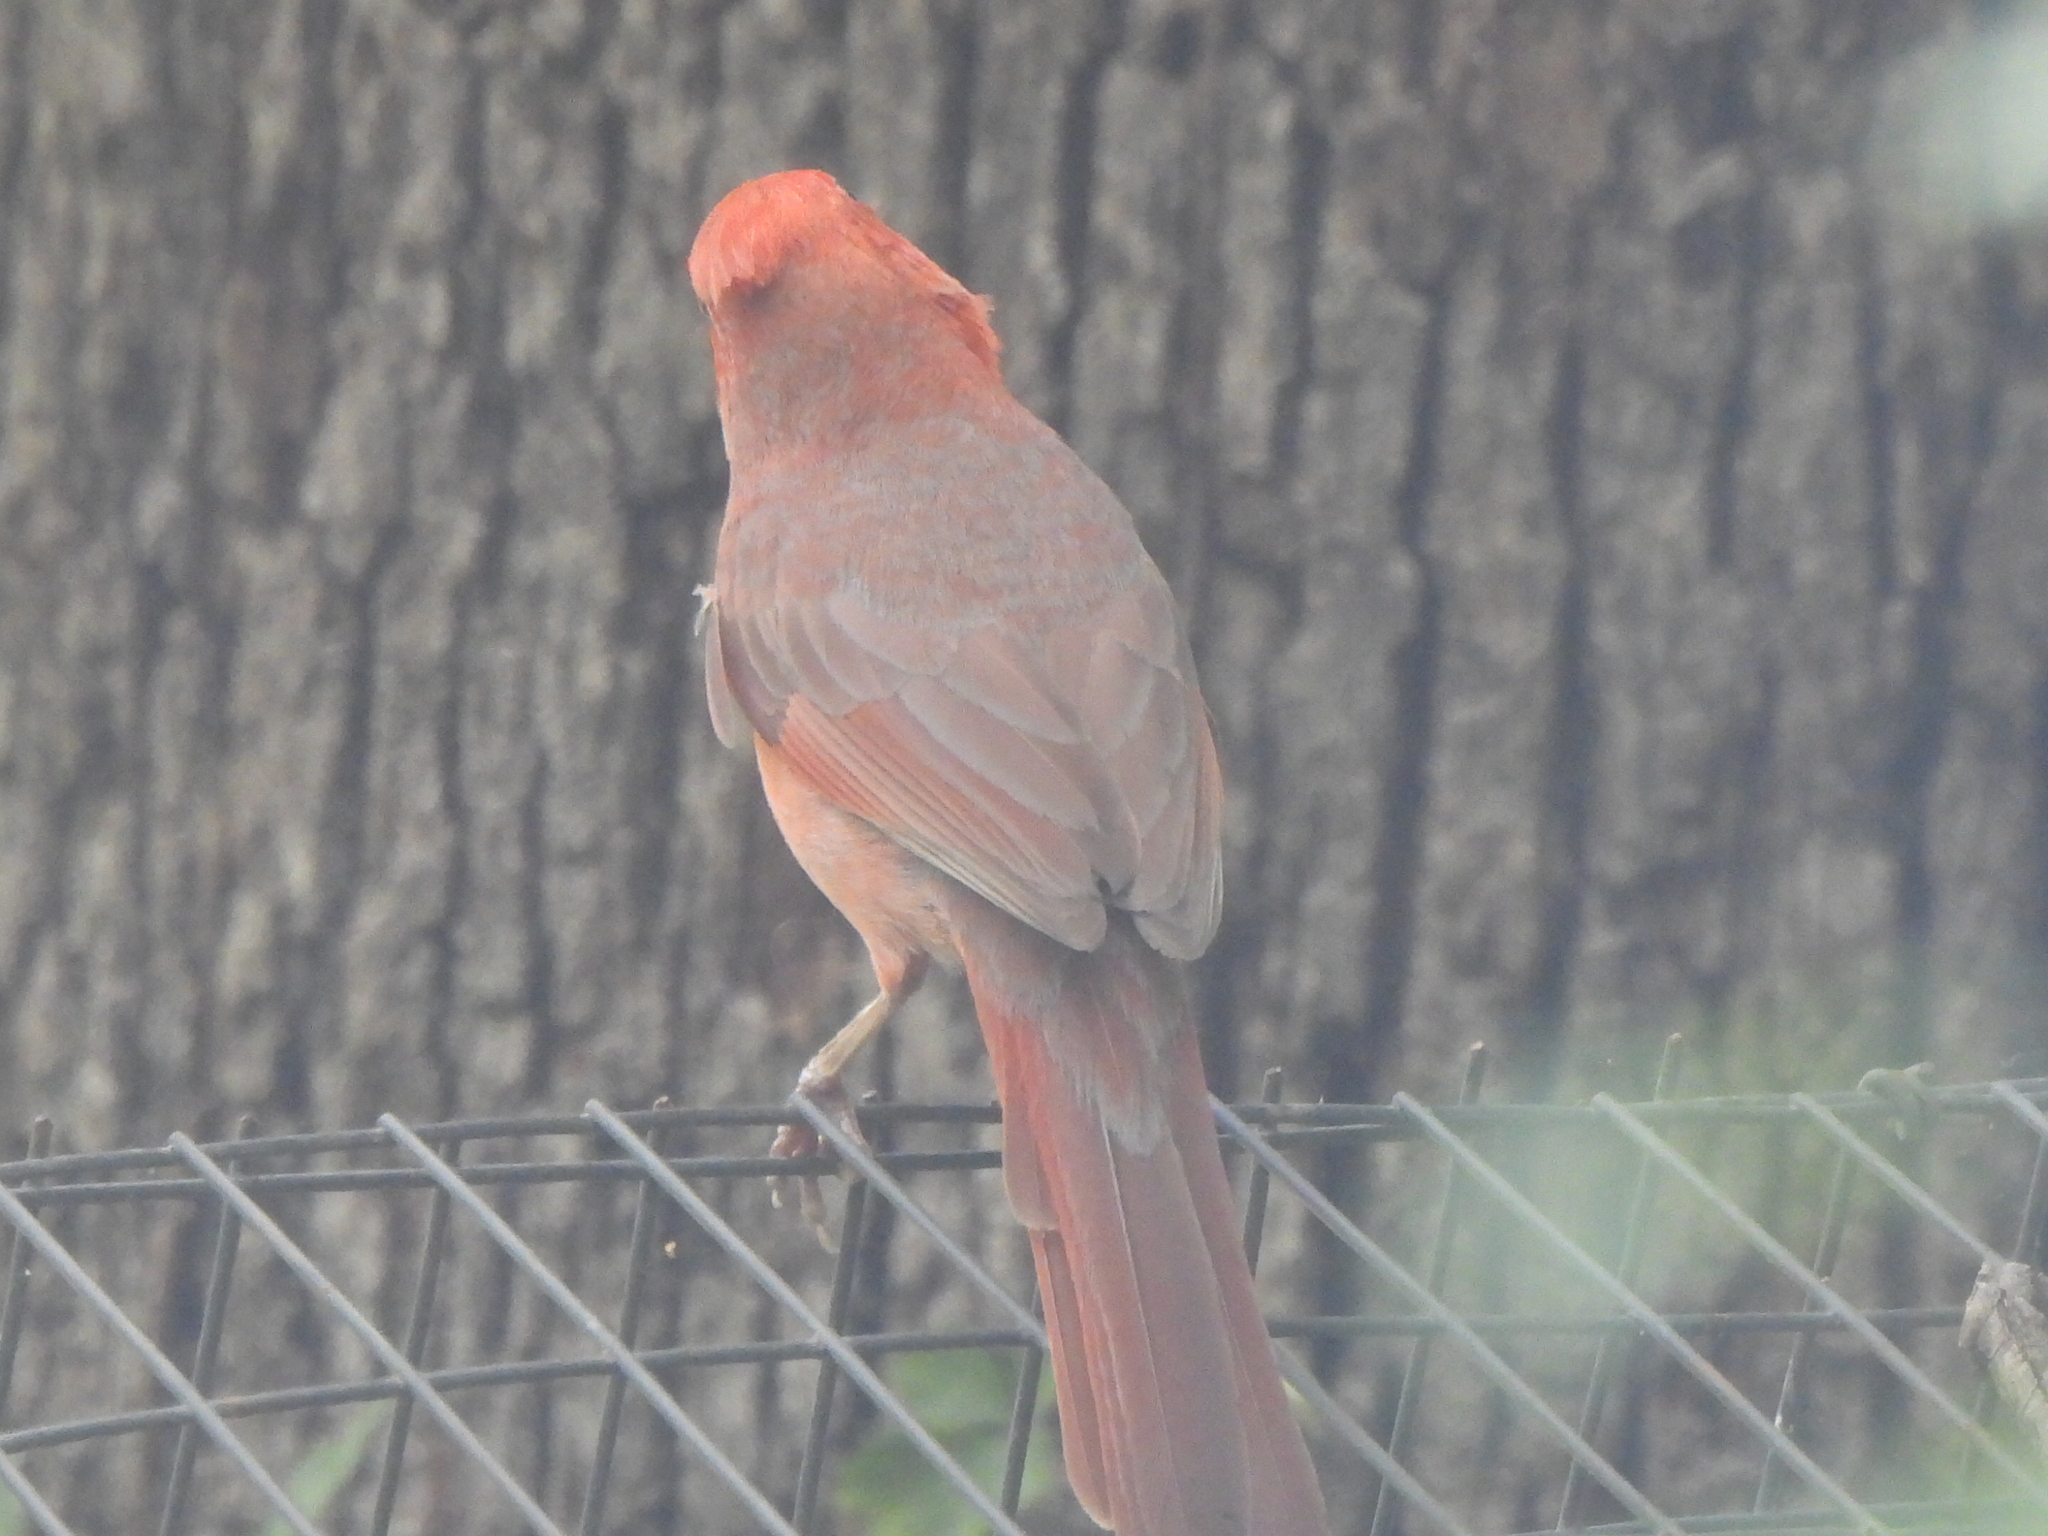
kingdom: Animalia
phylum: Chordata
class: Aves
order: Passeriformes
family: Cardinalidae
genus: Cardinalis
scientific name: Cardinalis cardinalis
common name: Northern cardinal
